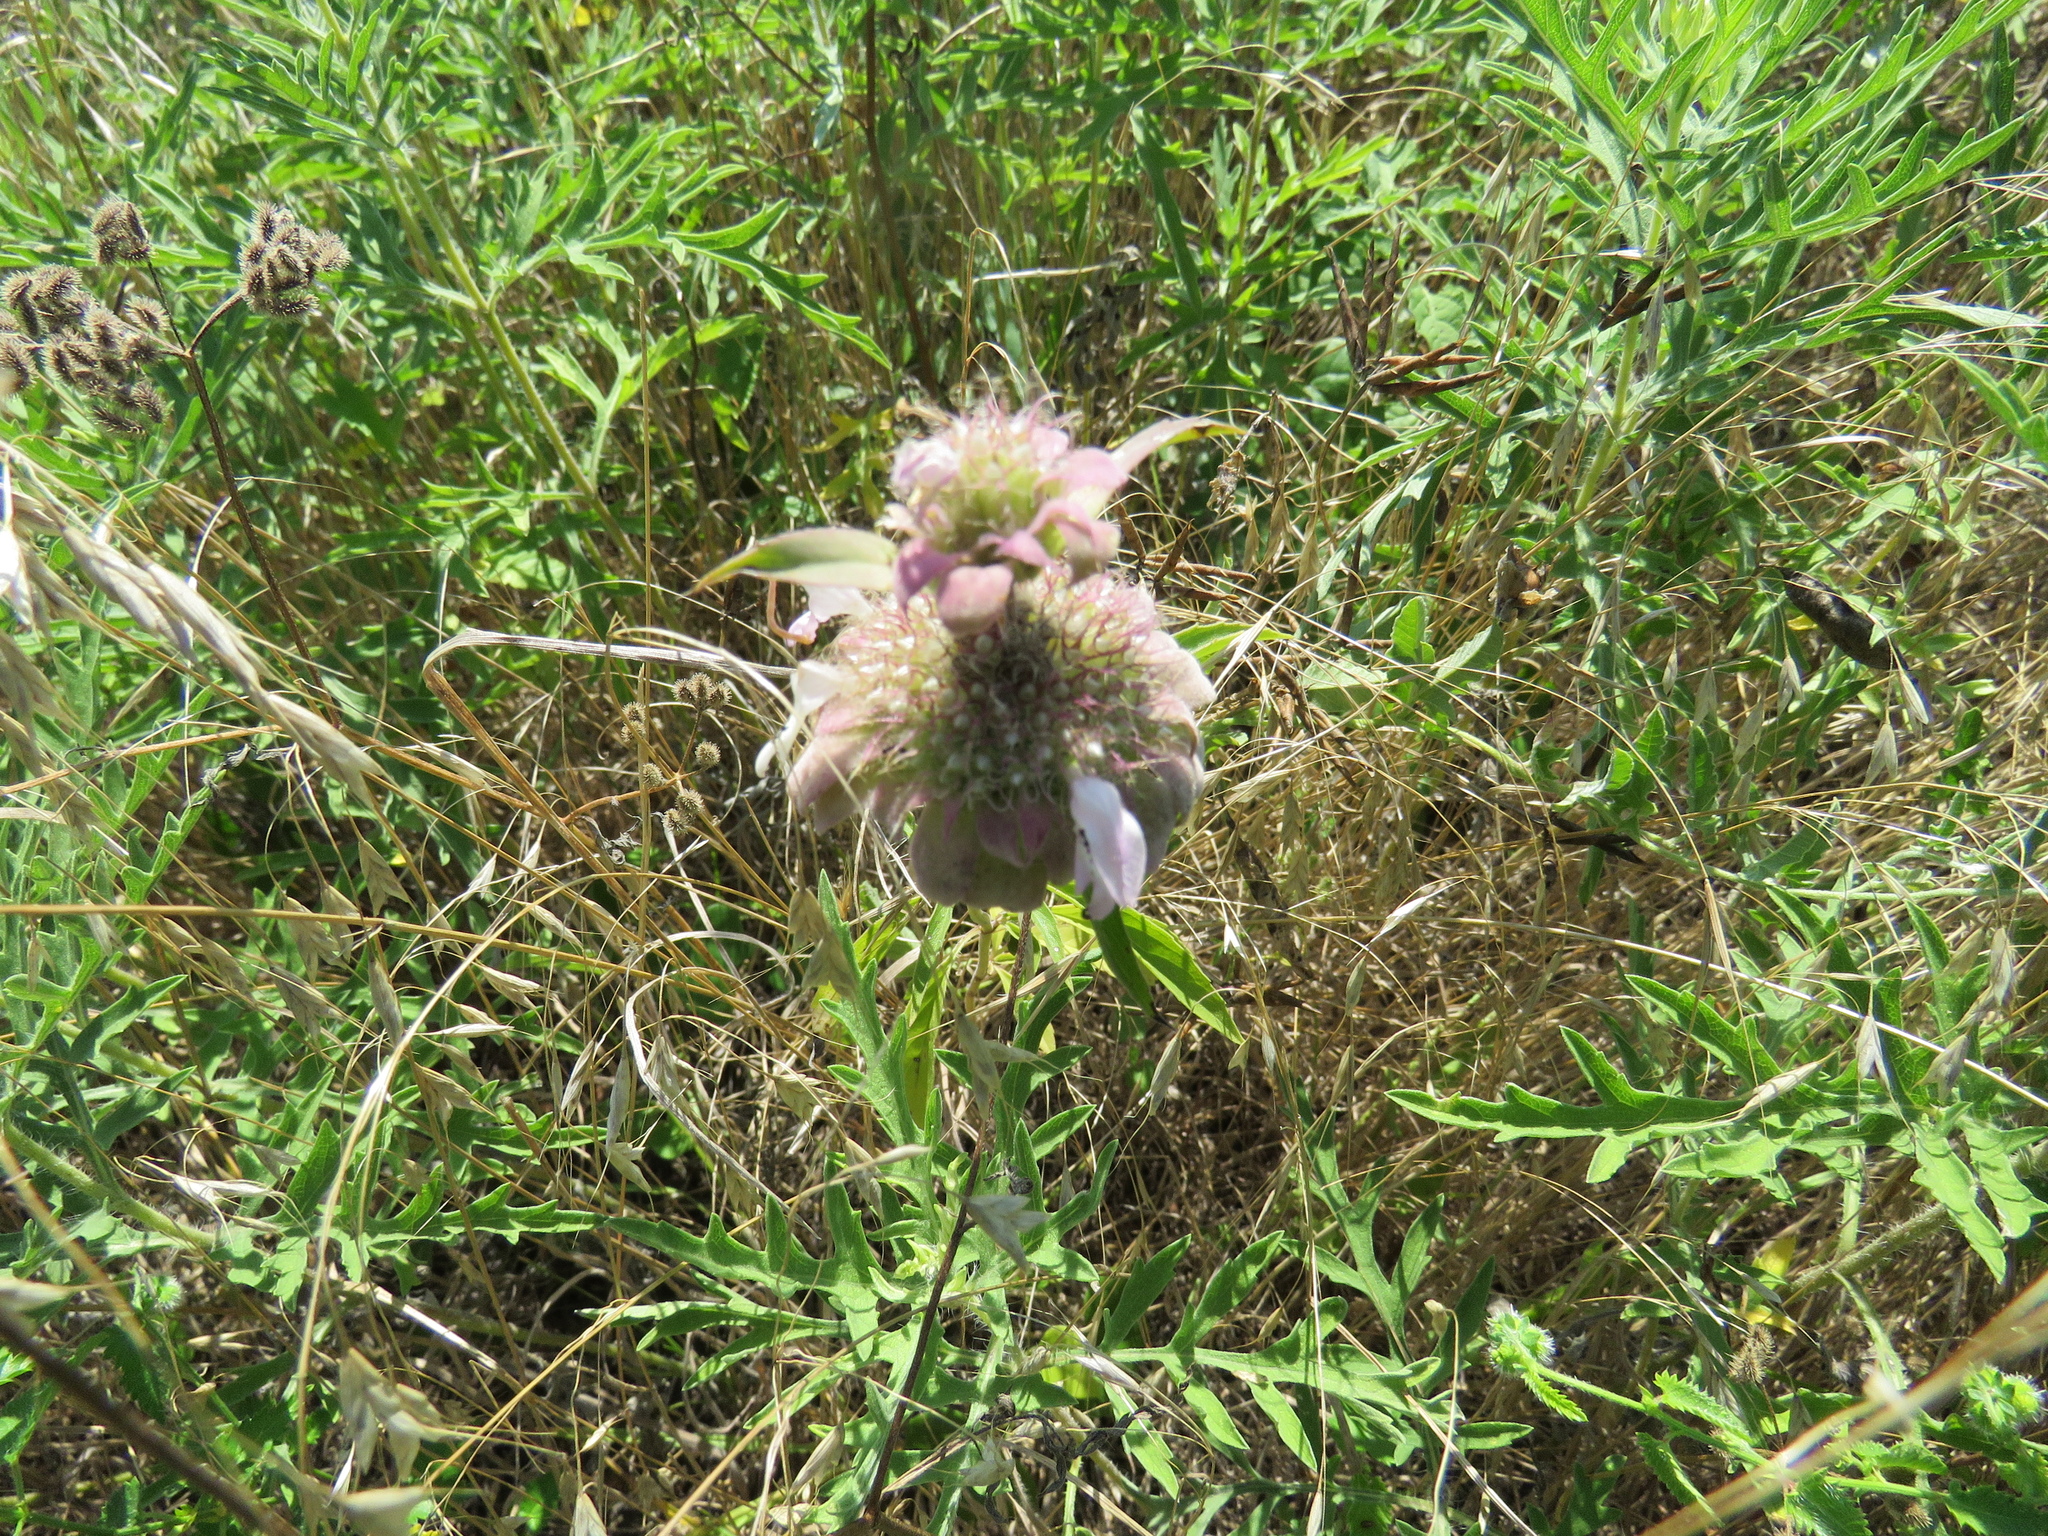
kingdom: Plantae
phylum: Tracheophyta
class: Magnoliopsida
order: Lamiales
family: Lamiaceae
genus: Monarda
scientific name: Monarda citriodora
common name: Lemon beebalm
